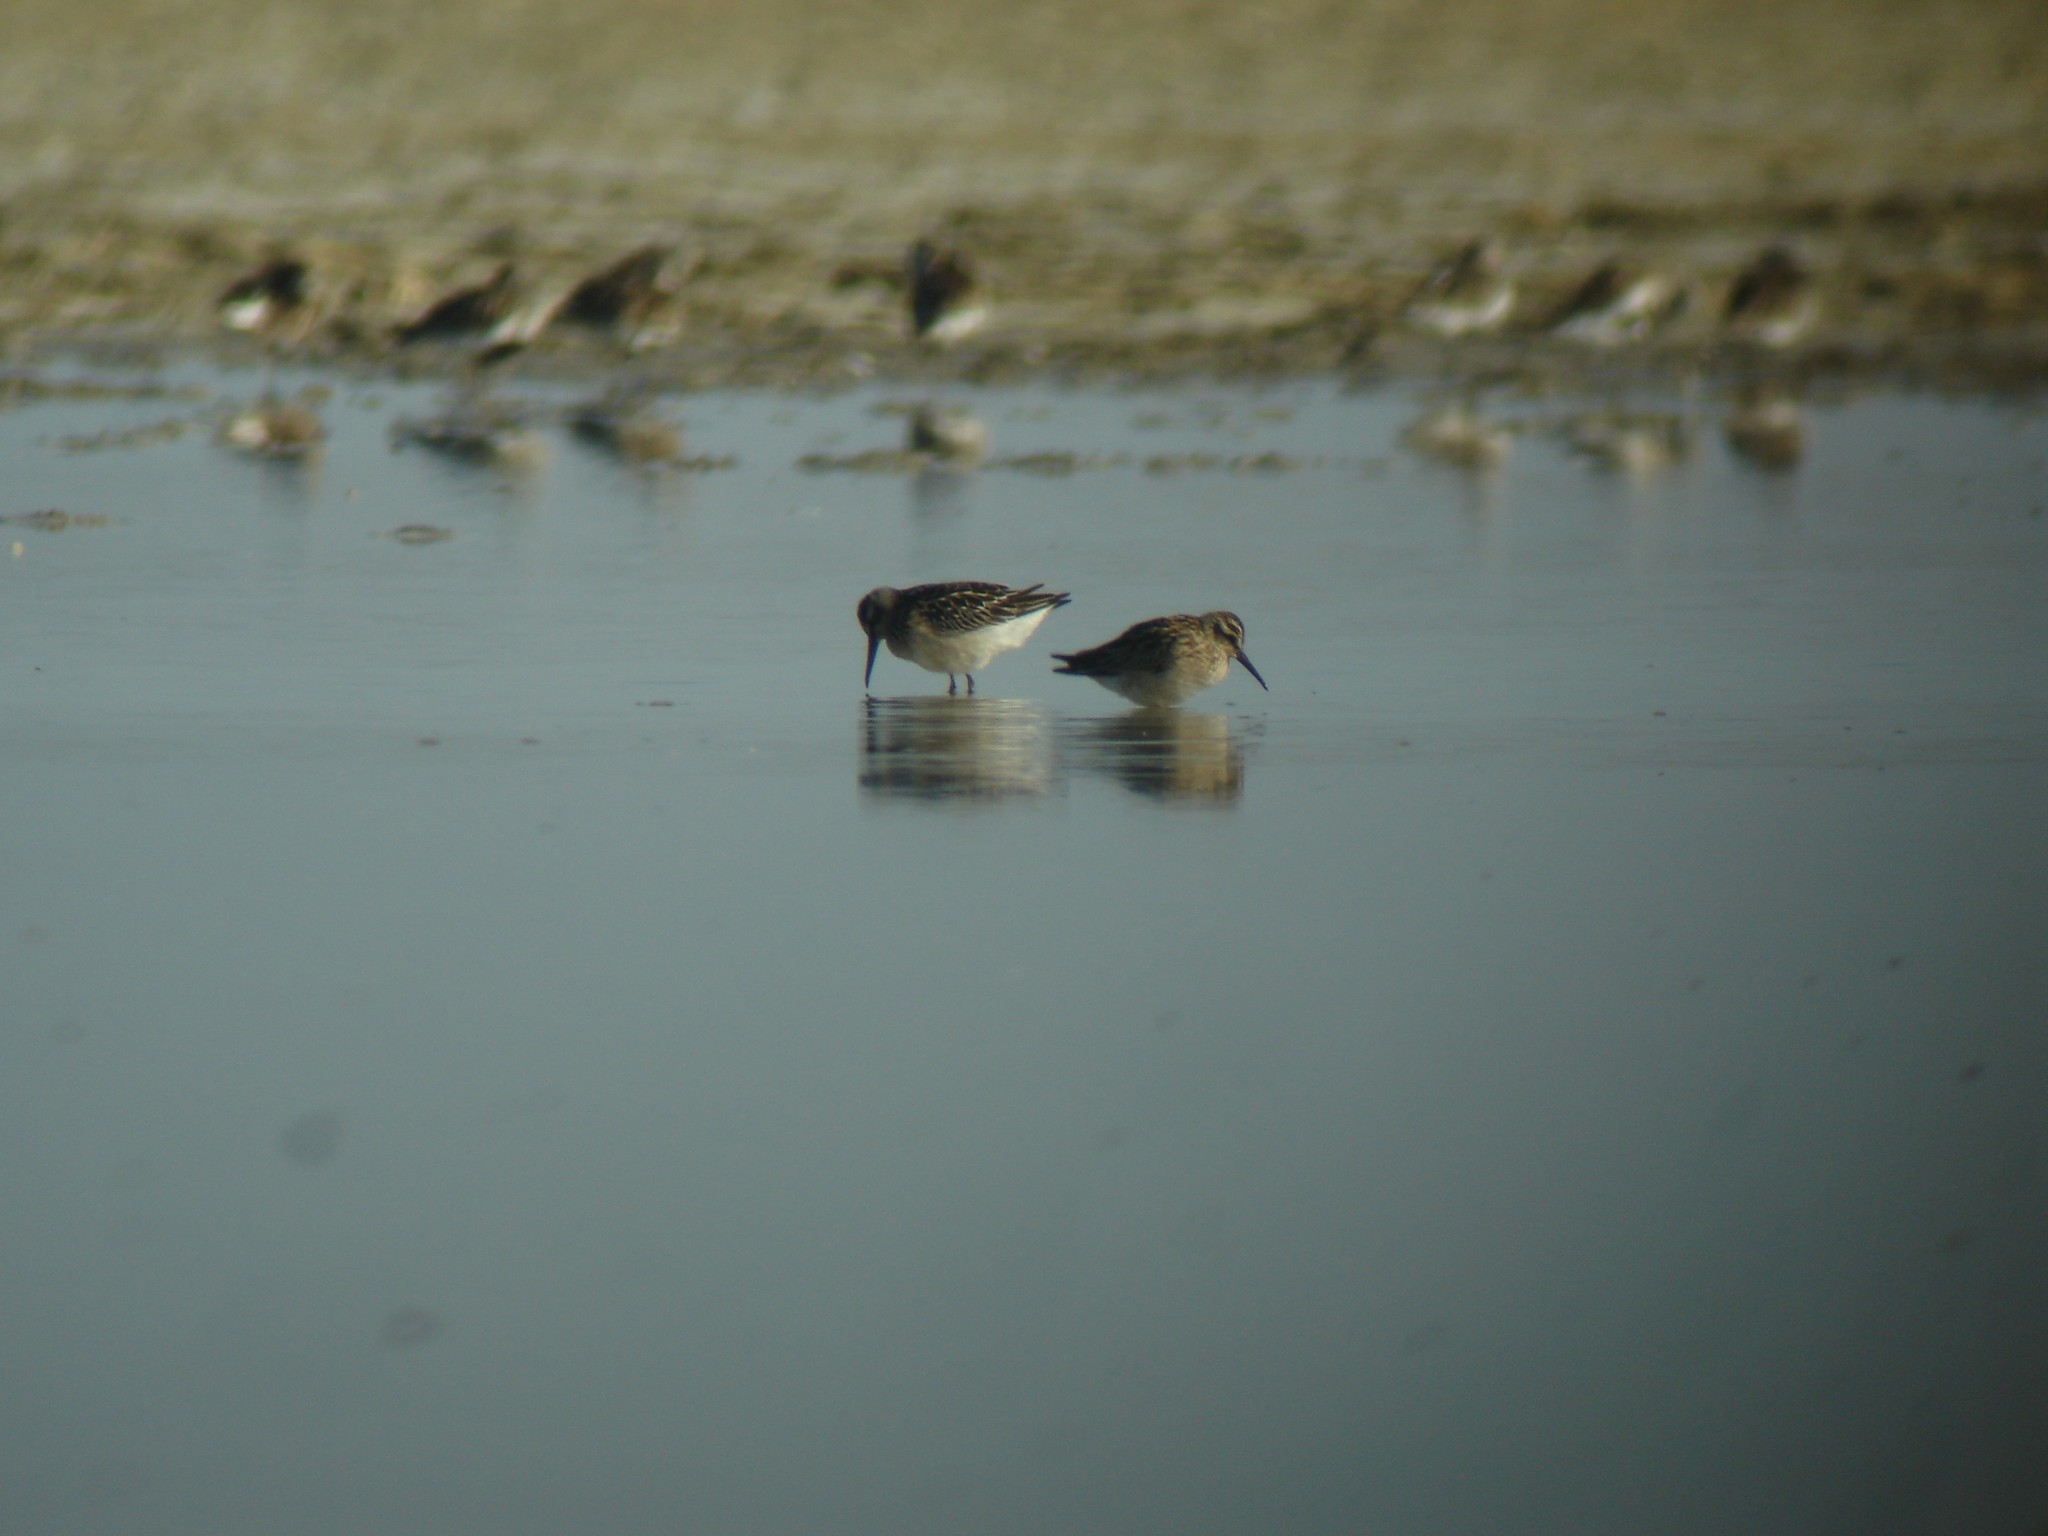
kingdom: Animalia
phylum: Chordata
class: Aves
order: Charadriiformes
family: Scolopacidae
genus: Calidris
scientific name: Calidris falcinellus
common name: Broad-billed sandpiper
